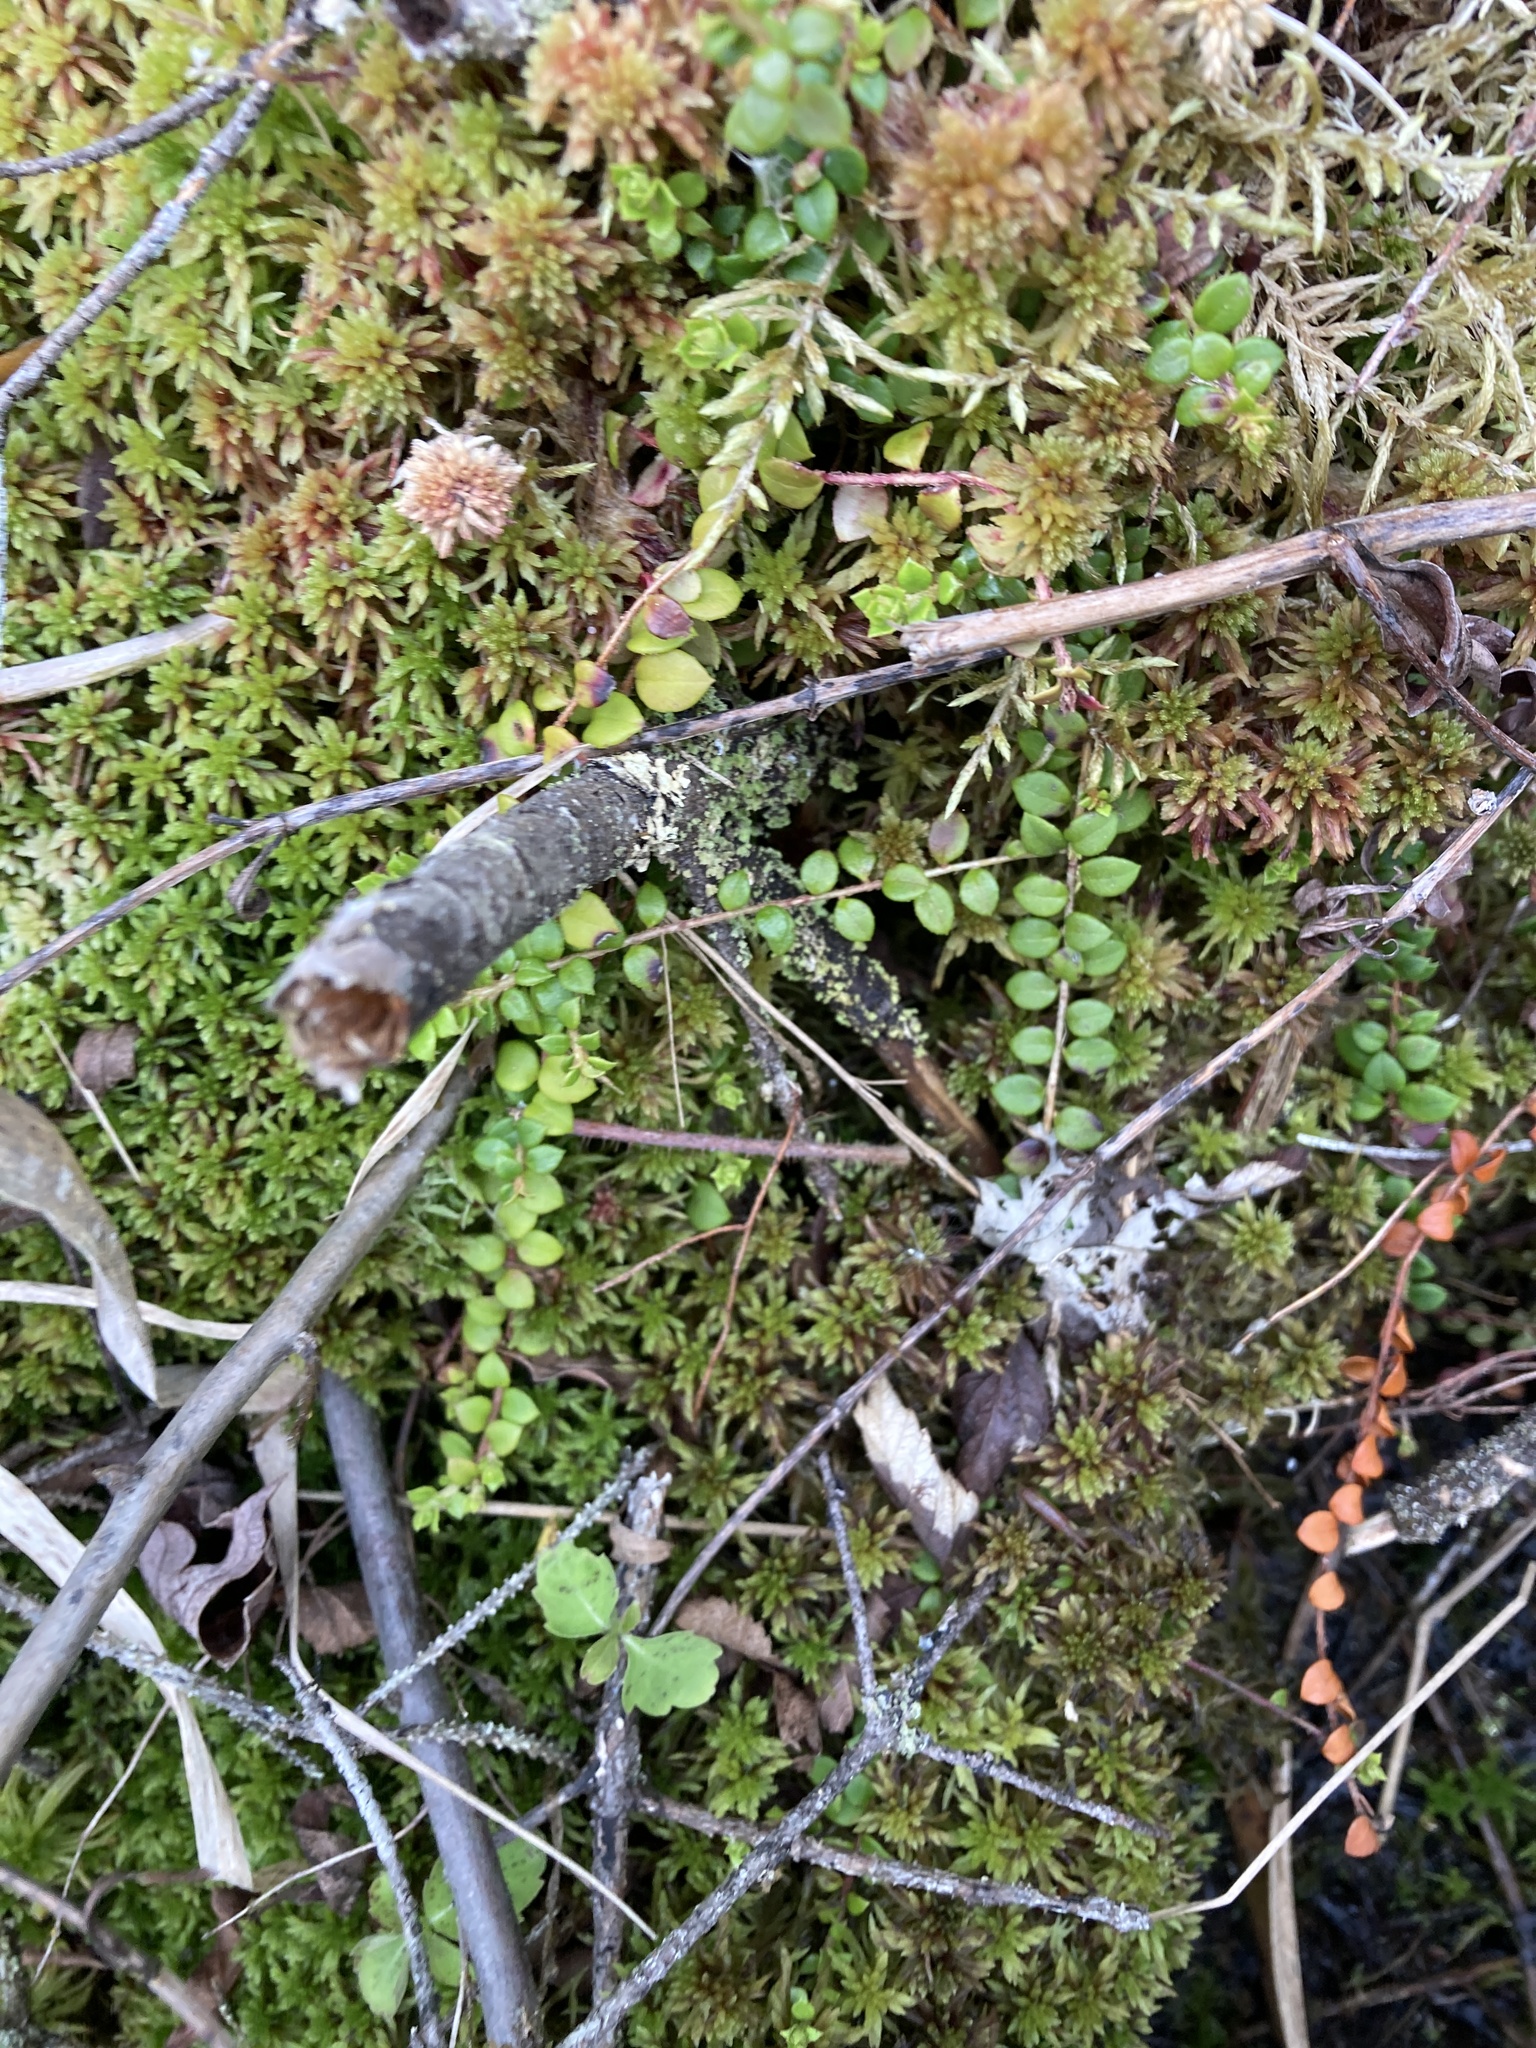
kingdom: Plantae
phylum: Tracheophyta
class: Magnoliopsida
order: Ericales
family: Ericaceae
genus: Gaultheria
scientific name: Gaultheria hispidula
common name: Cancer wintergreen
